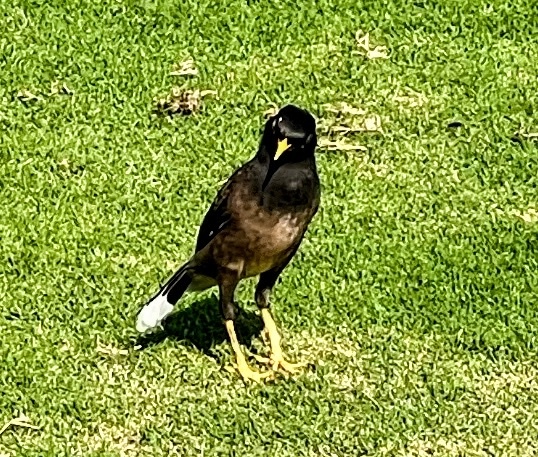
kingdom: Animalia
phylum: Chordata
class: Aves
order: Passeriformes
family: Sturnidae
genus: Acridotheres
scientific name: Acridotheres tristis
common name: Common myna
